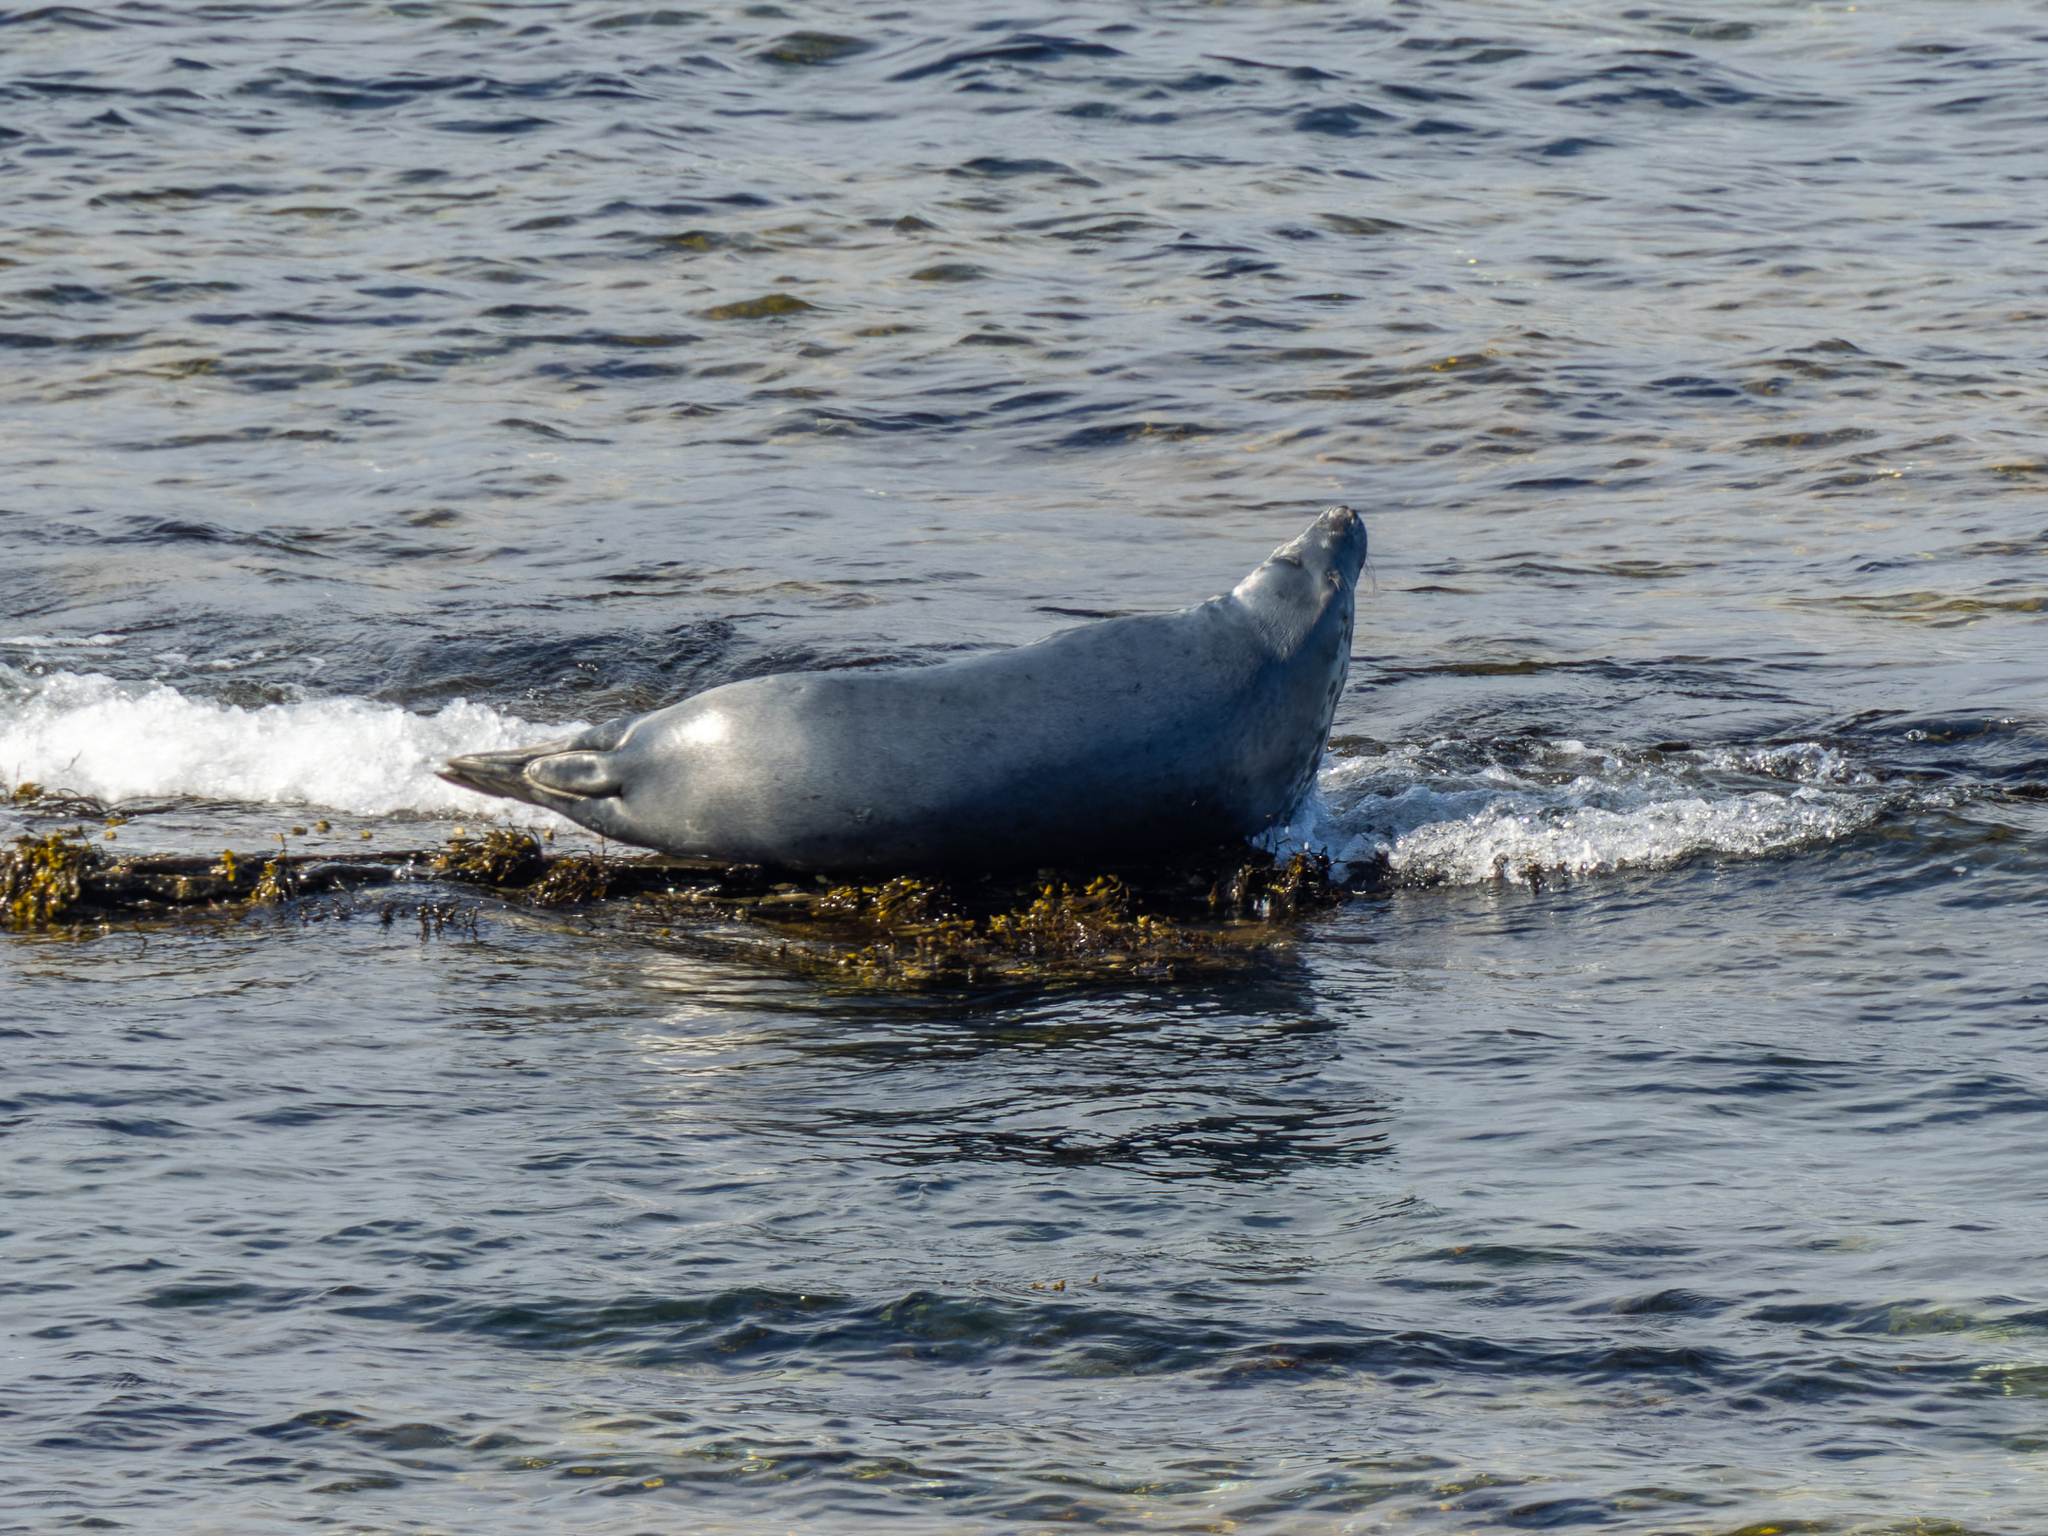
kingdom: Animalia
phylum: Chordata
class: Mammalia
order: Carnivora
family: Phocidae
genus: Halichoerus
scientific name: Halichoerus grypus
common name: Grey seal
